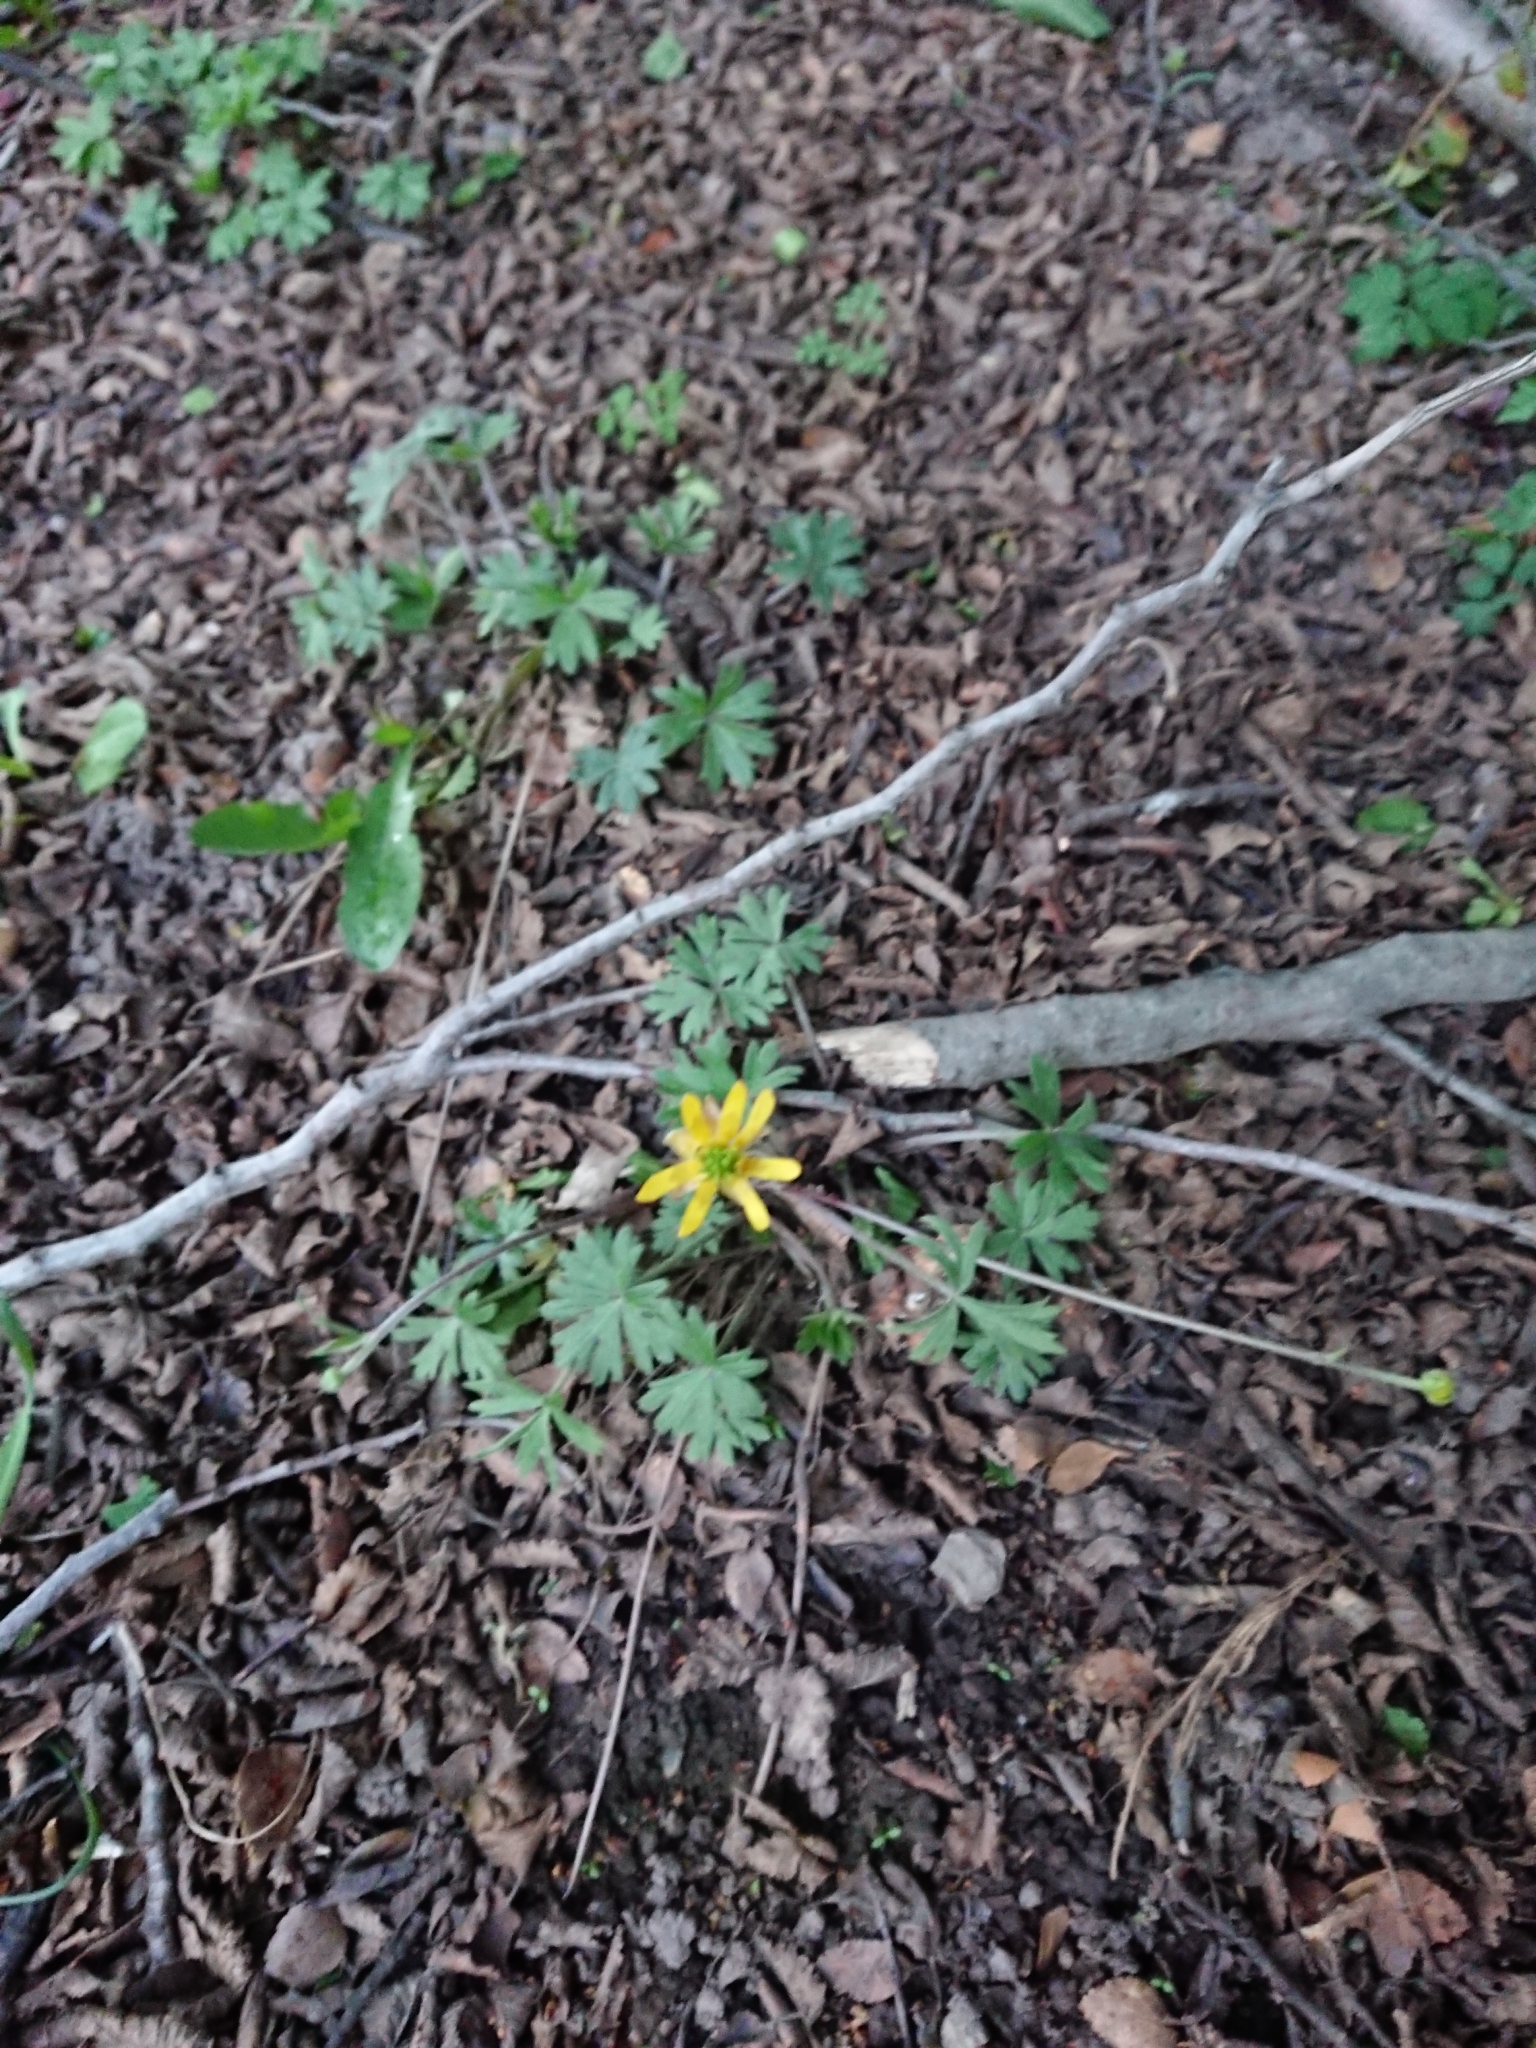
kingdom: Plantae
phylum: Tracheophyta
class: Magnoliopsida
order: Ranunculales
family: Ranunculaceae
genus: Ranunculus
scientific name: Ranunculus peduncularis
